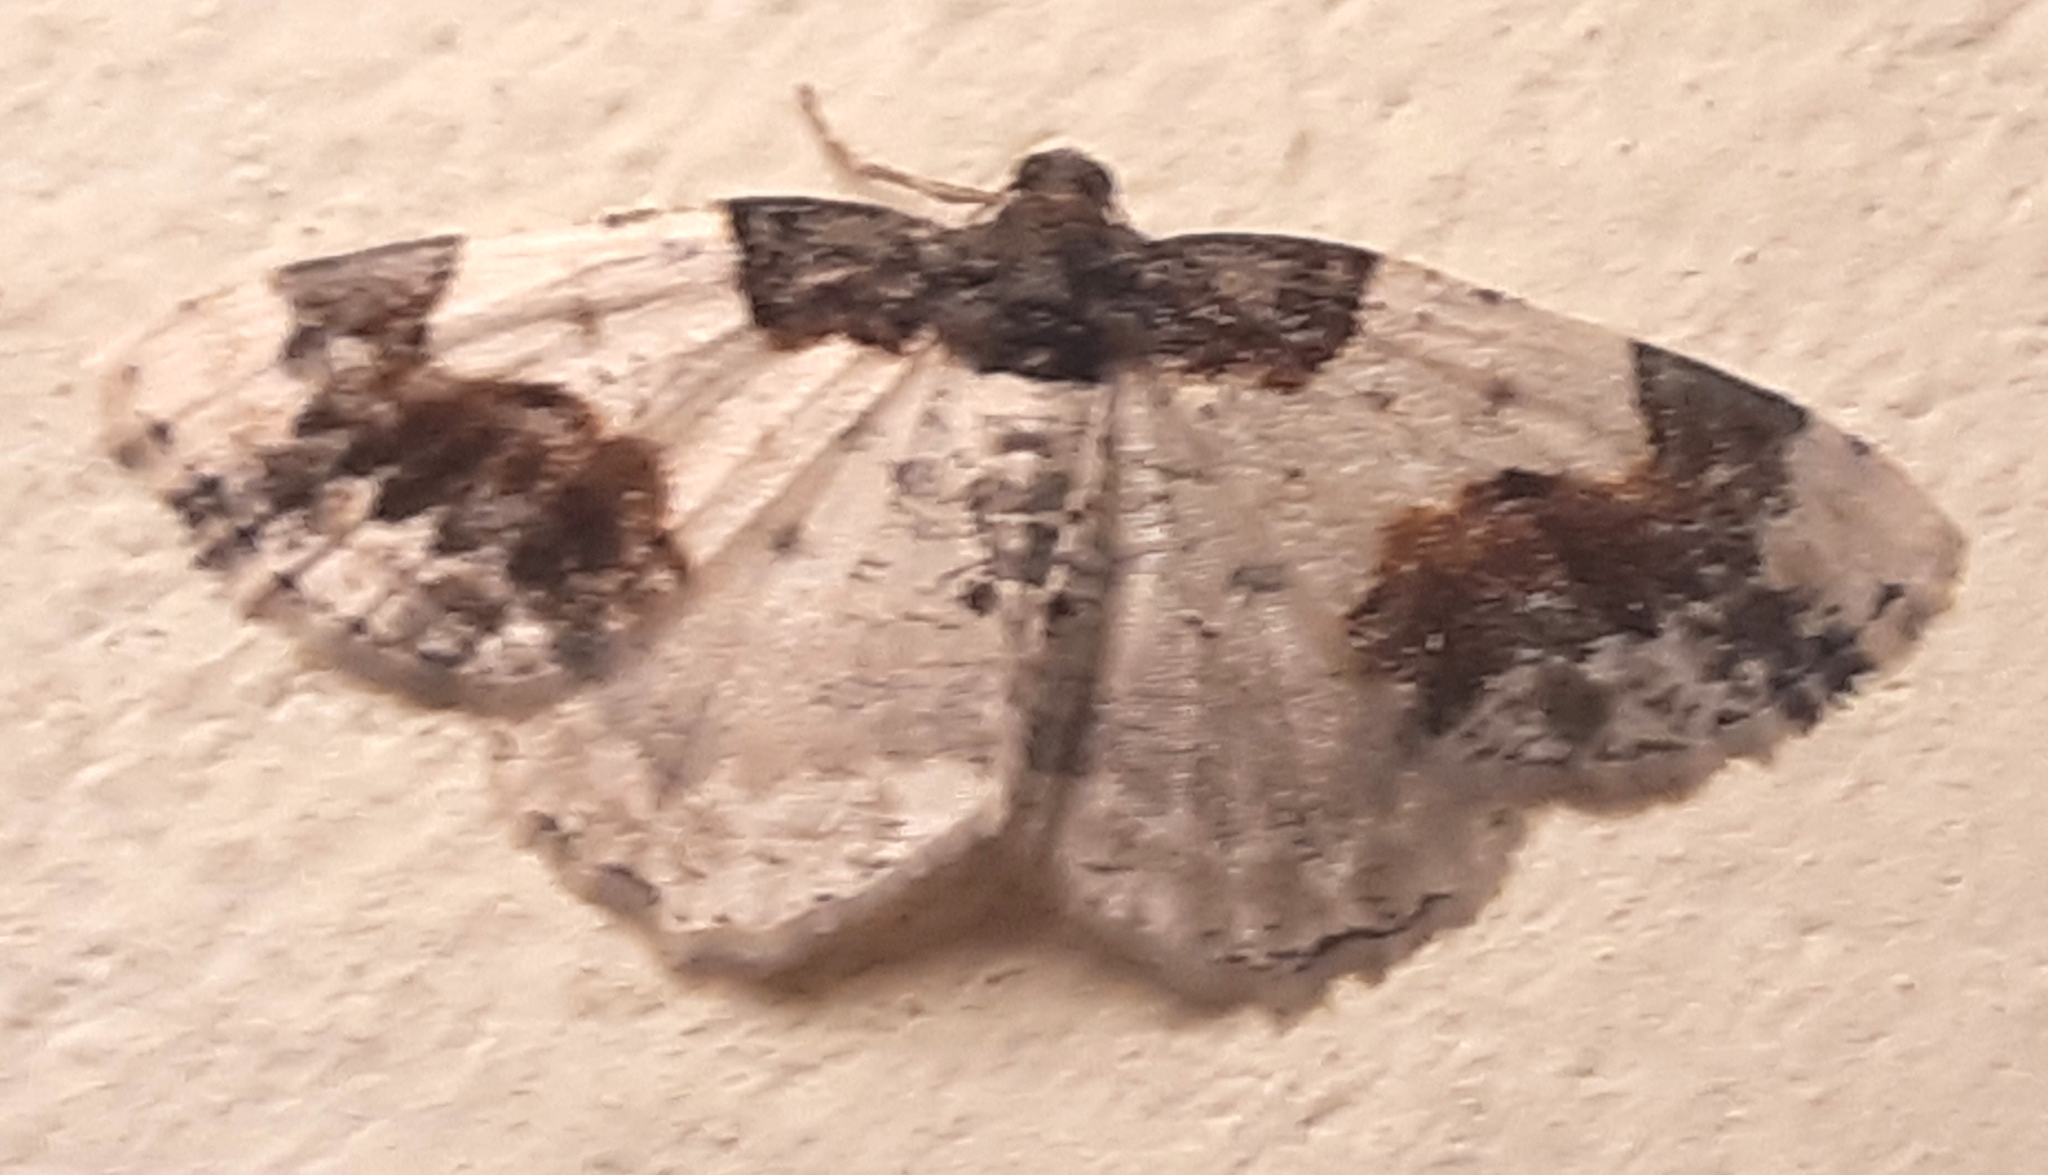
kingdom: Animalia
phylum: Arthropoda
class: Insecta
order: Lepidoptera
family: Geometridae
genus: Ligdia
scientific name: Ligdia adustata
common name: Scorched carpet
